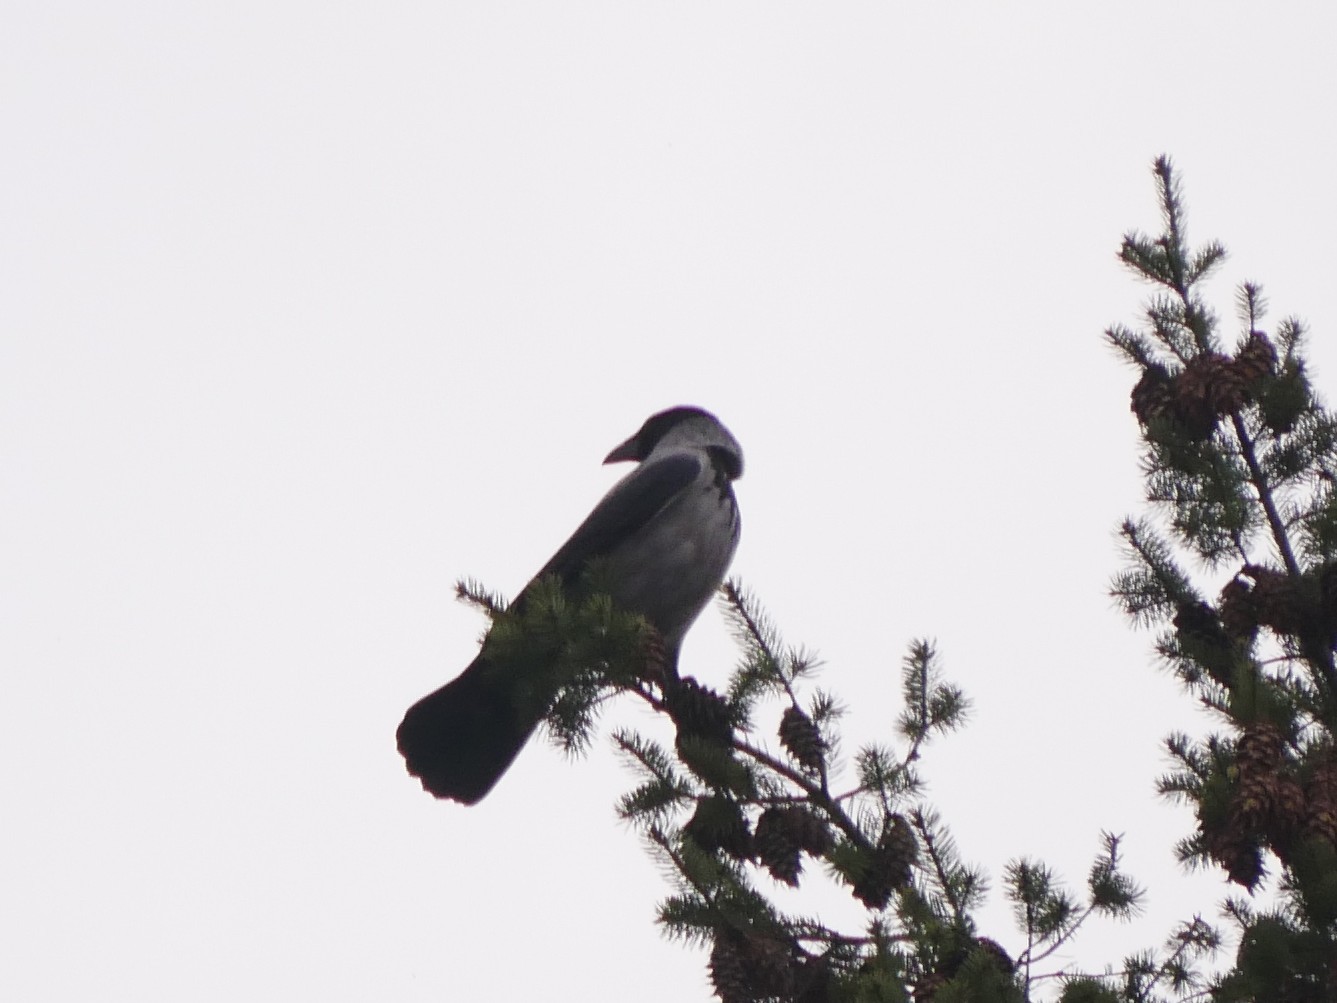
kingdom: Animalia
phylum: Chordata
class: Aves
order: Passeriformes
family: Corvidae
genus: Corvus
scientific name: Corvus cornix
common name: Hooded crow
